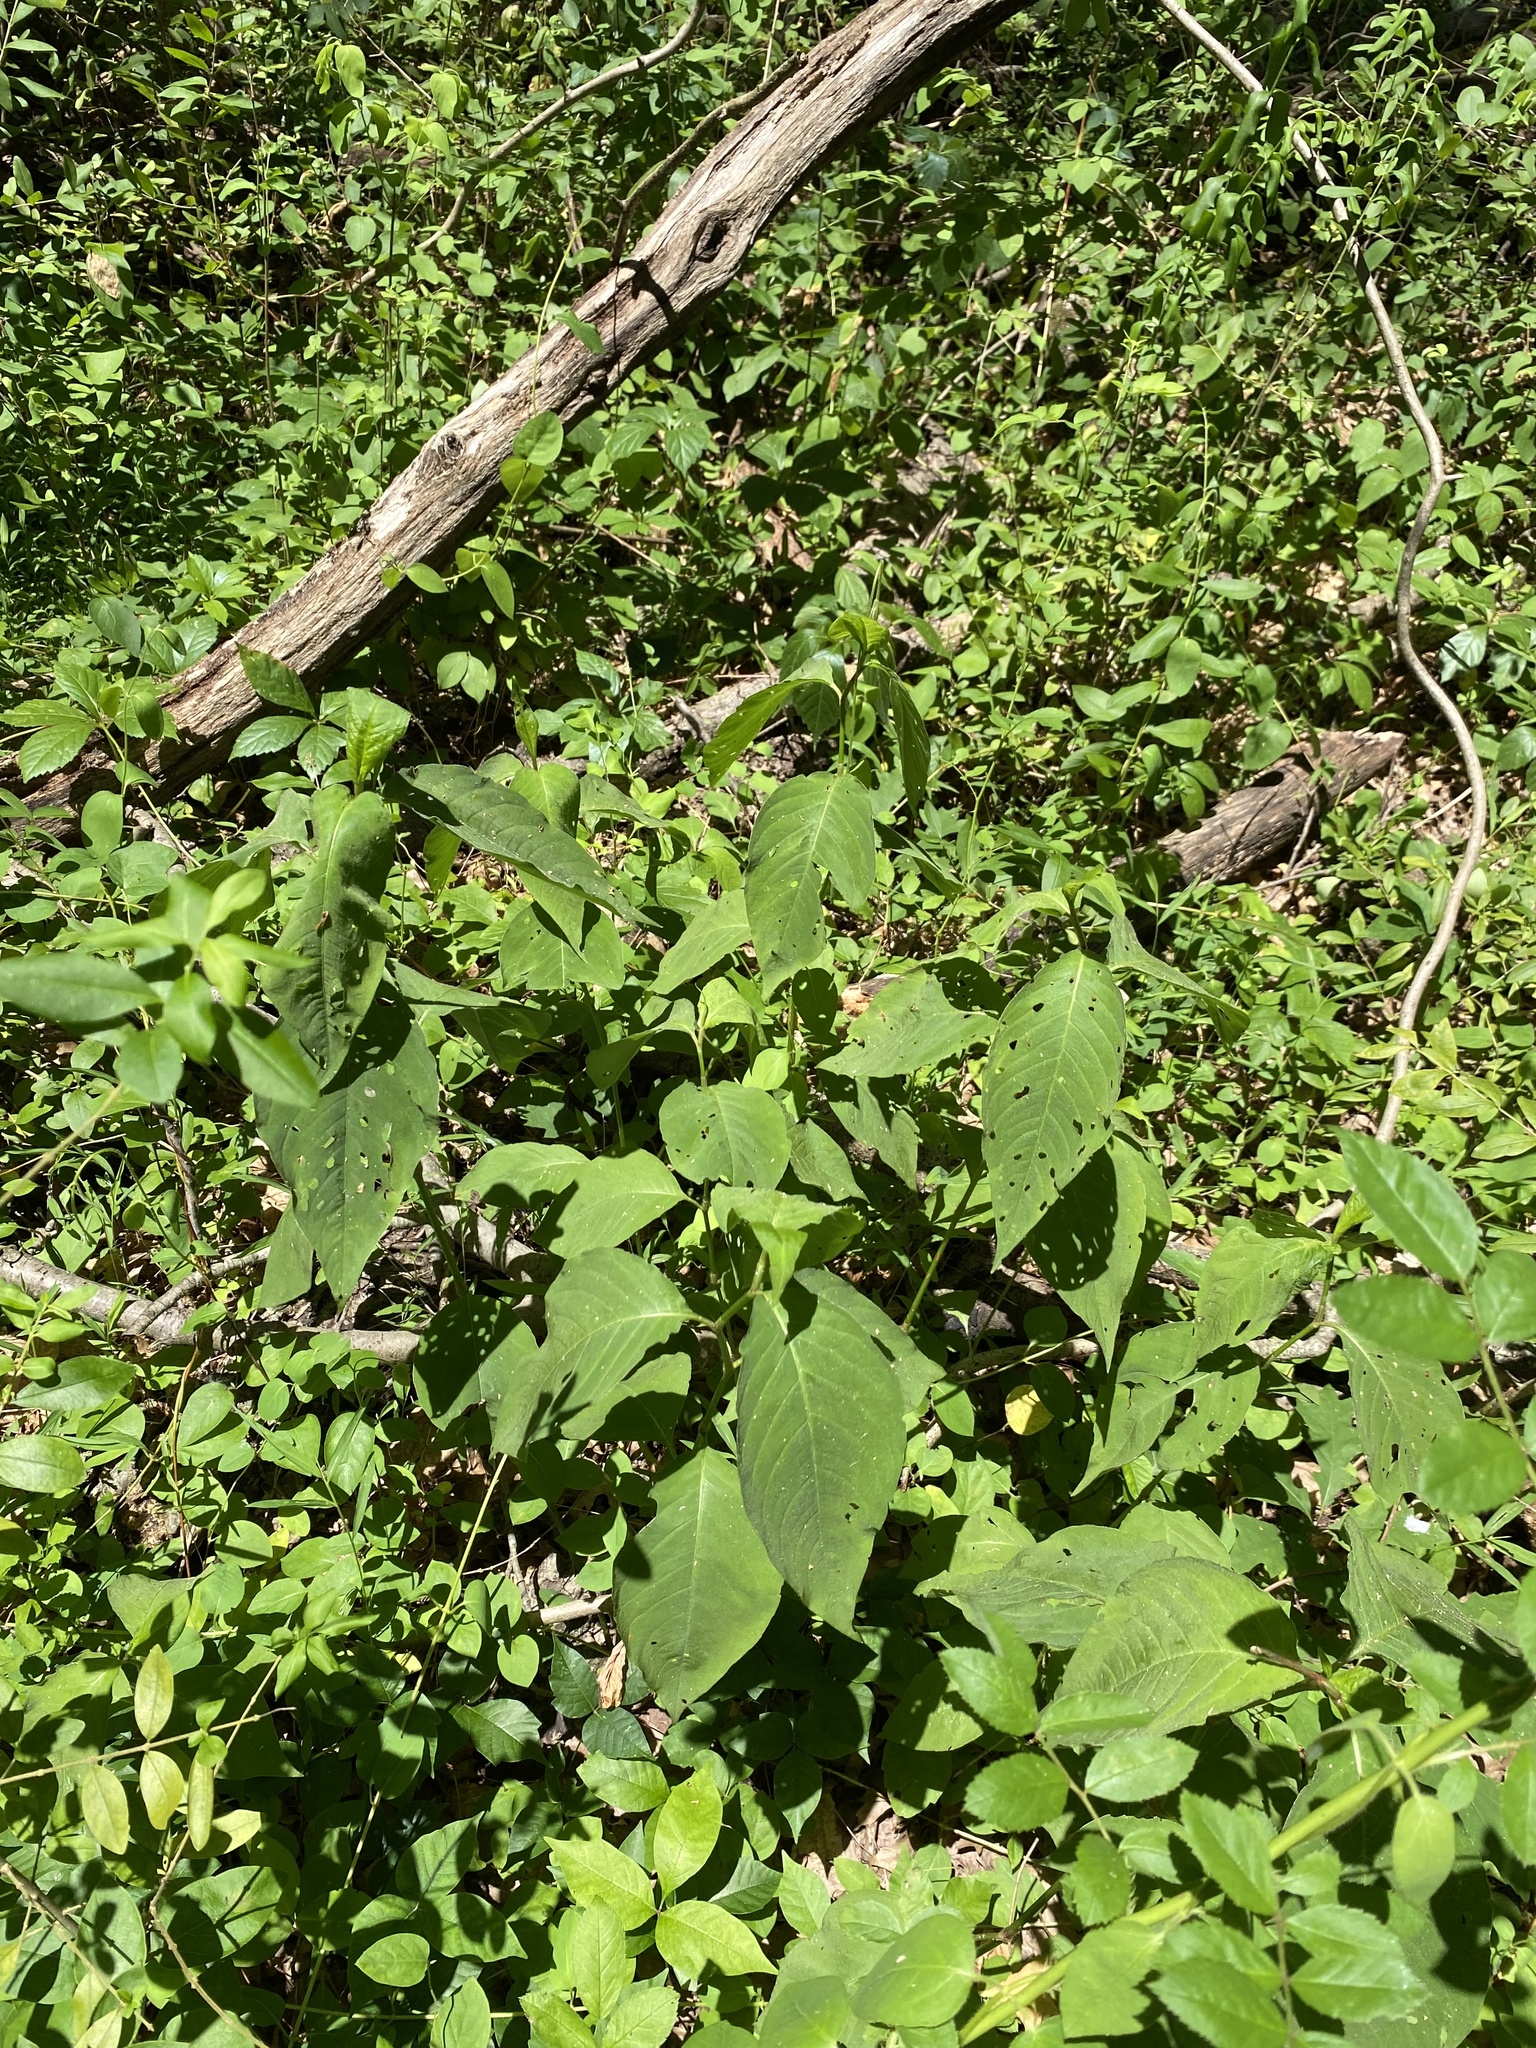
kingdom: Plantae
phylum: Tracheophyta
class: Magnoliopsida
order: Caryophyllales
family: Polygonaceae
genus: Persicaria
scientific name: Persicaria virginiana
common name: Jumpseed
